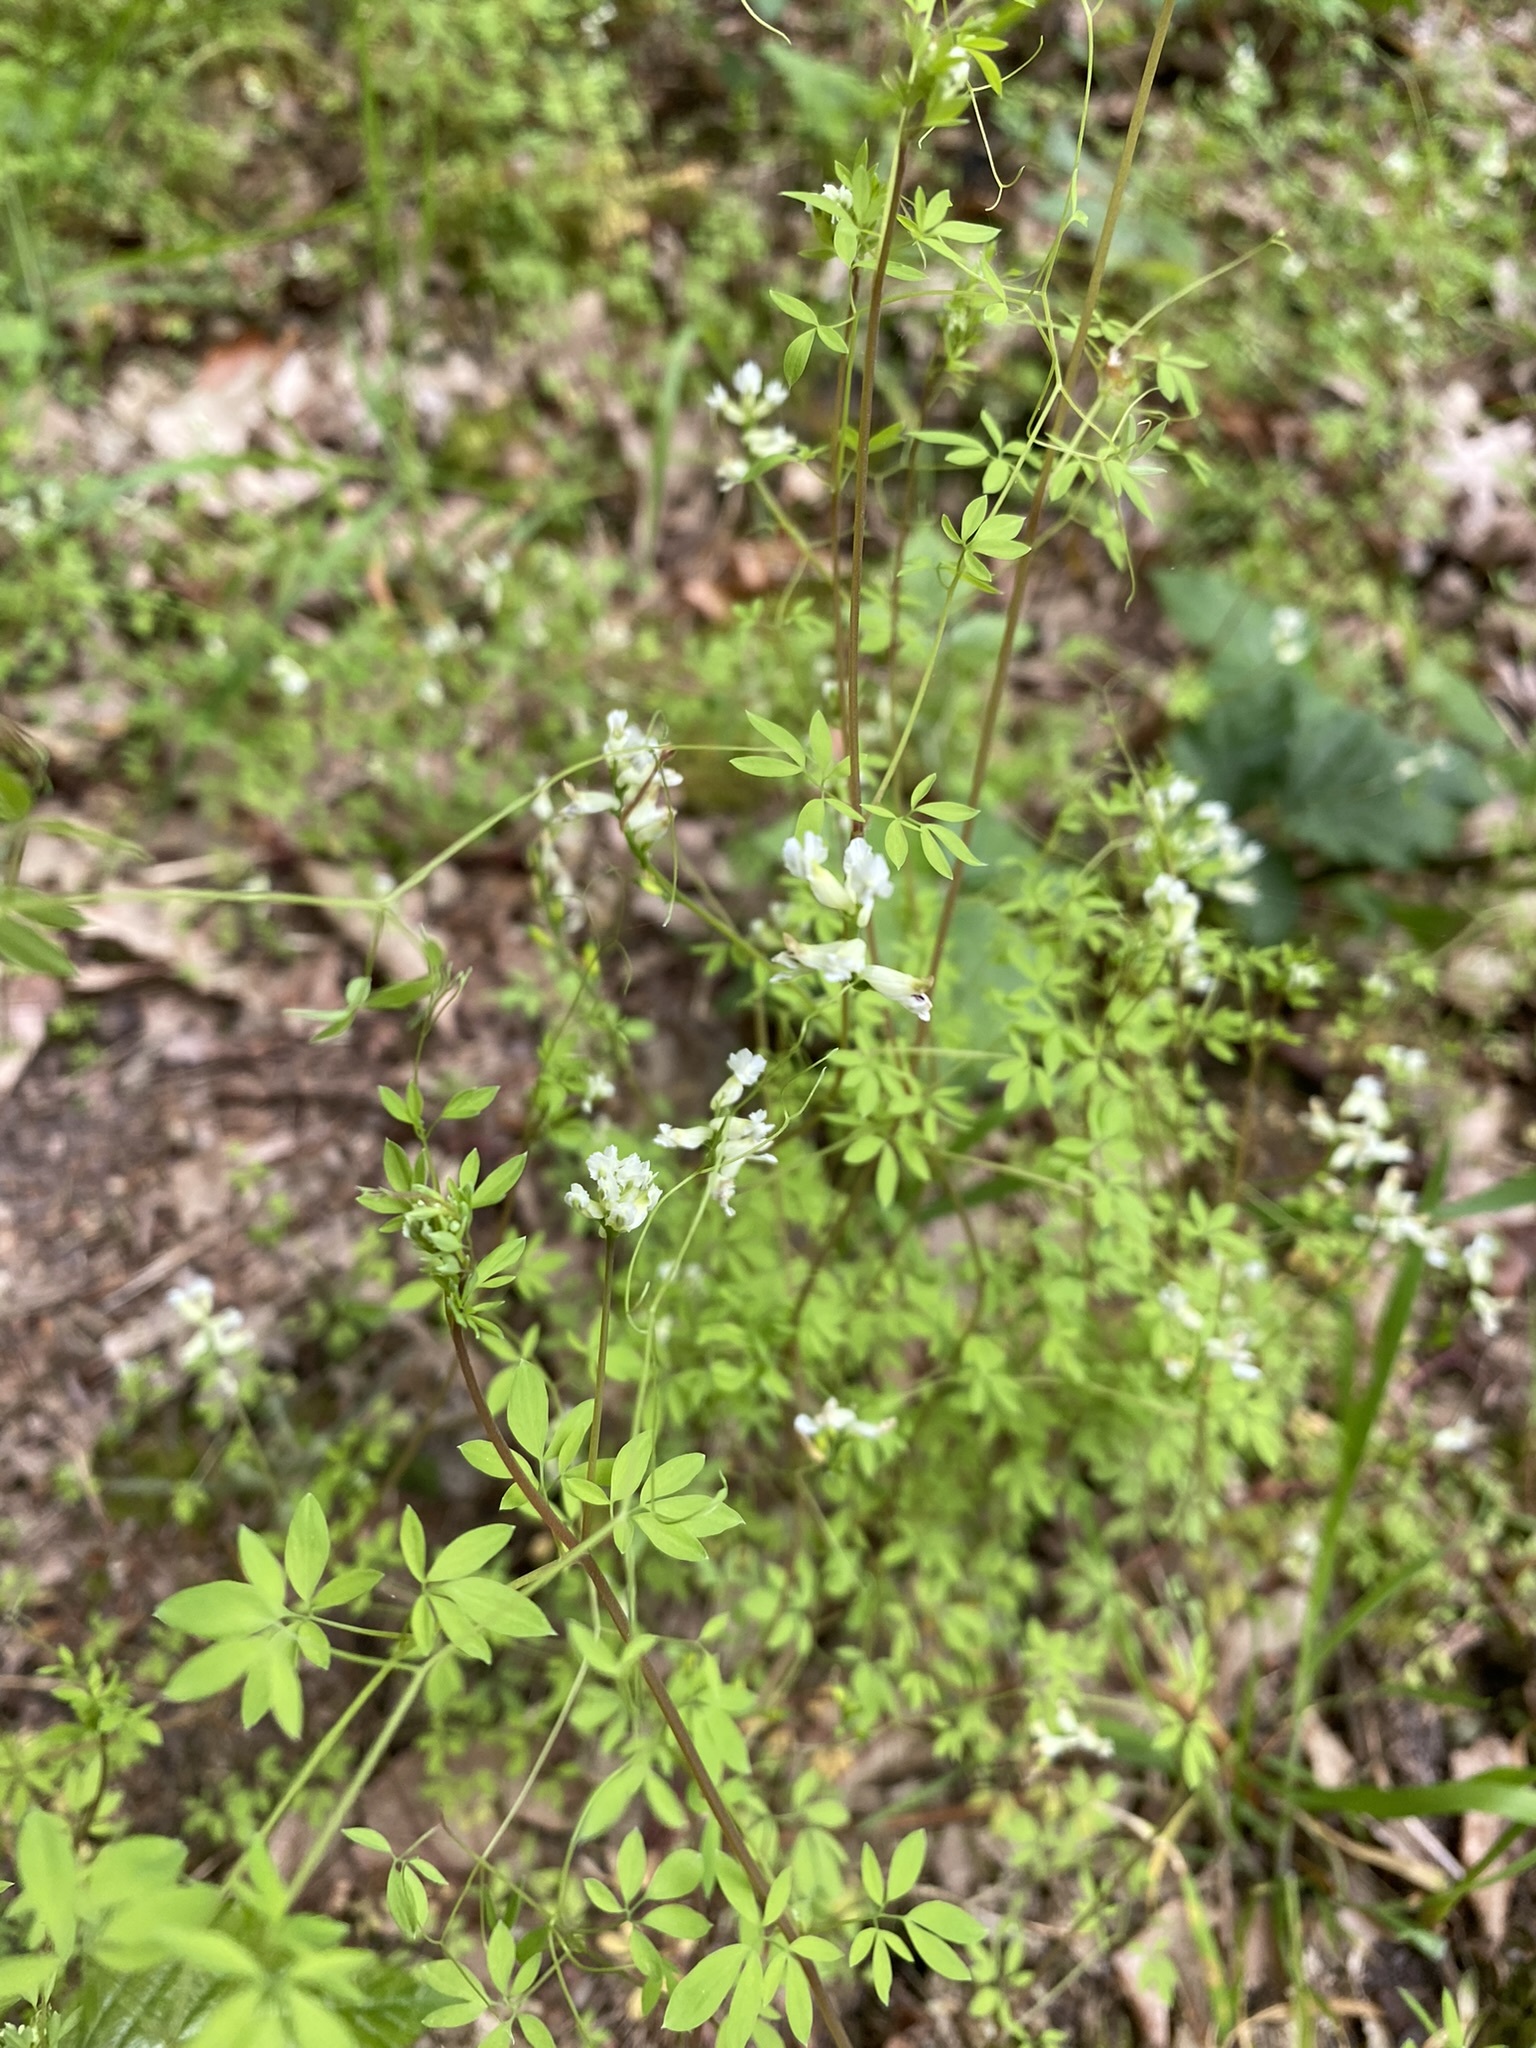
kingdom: Plantae
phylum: Tracheophyta
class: Magnoliopsida
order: Ranunculales
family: Papaveraceae
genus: Ceratocapnos
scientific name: Ceratocapnos claviculata
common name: Climbing corydalis
